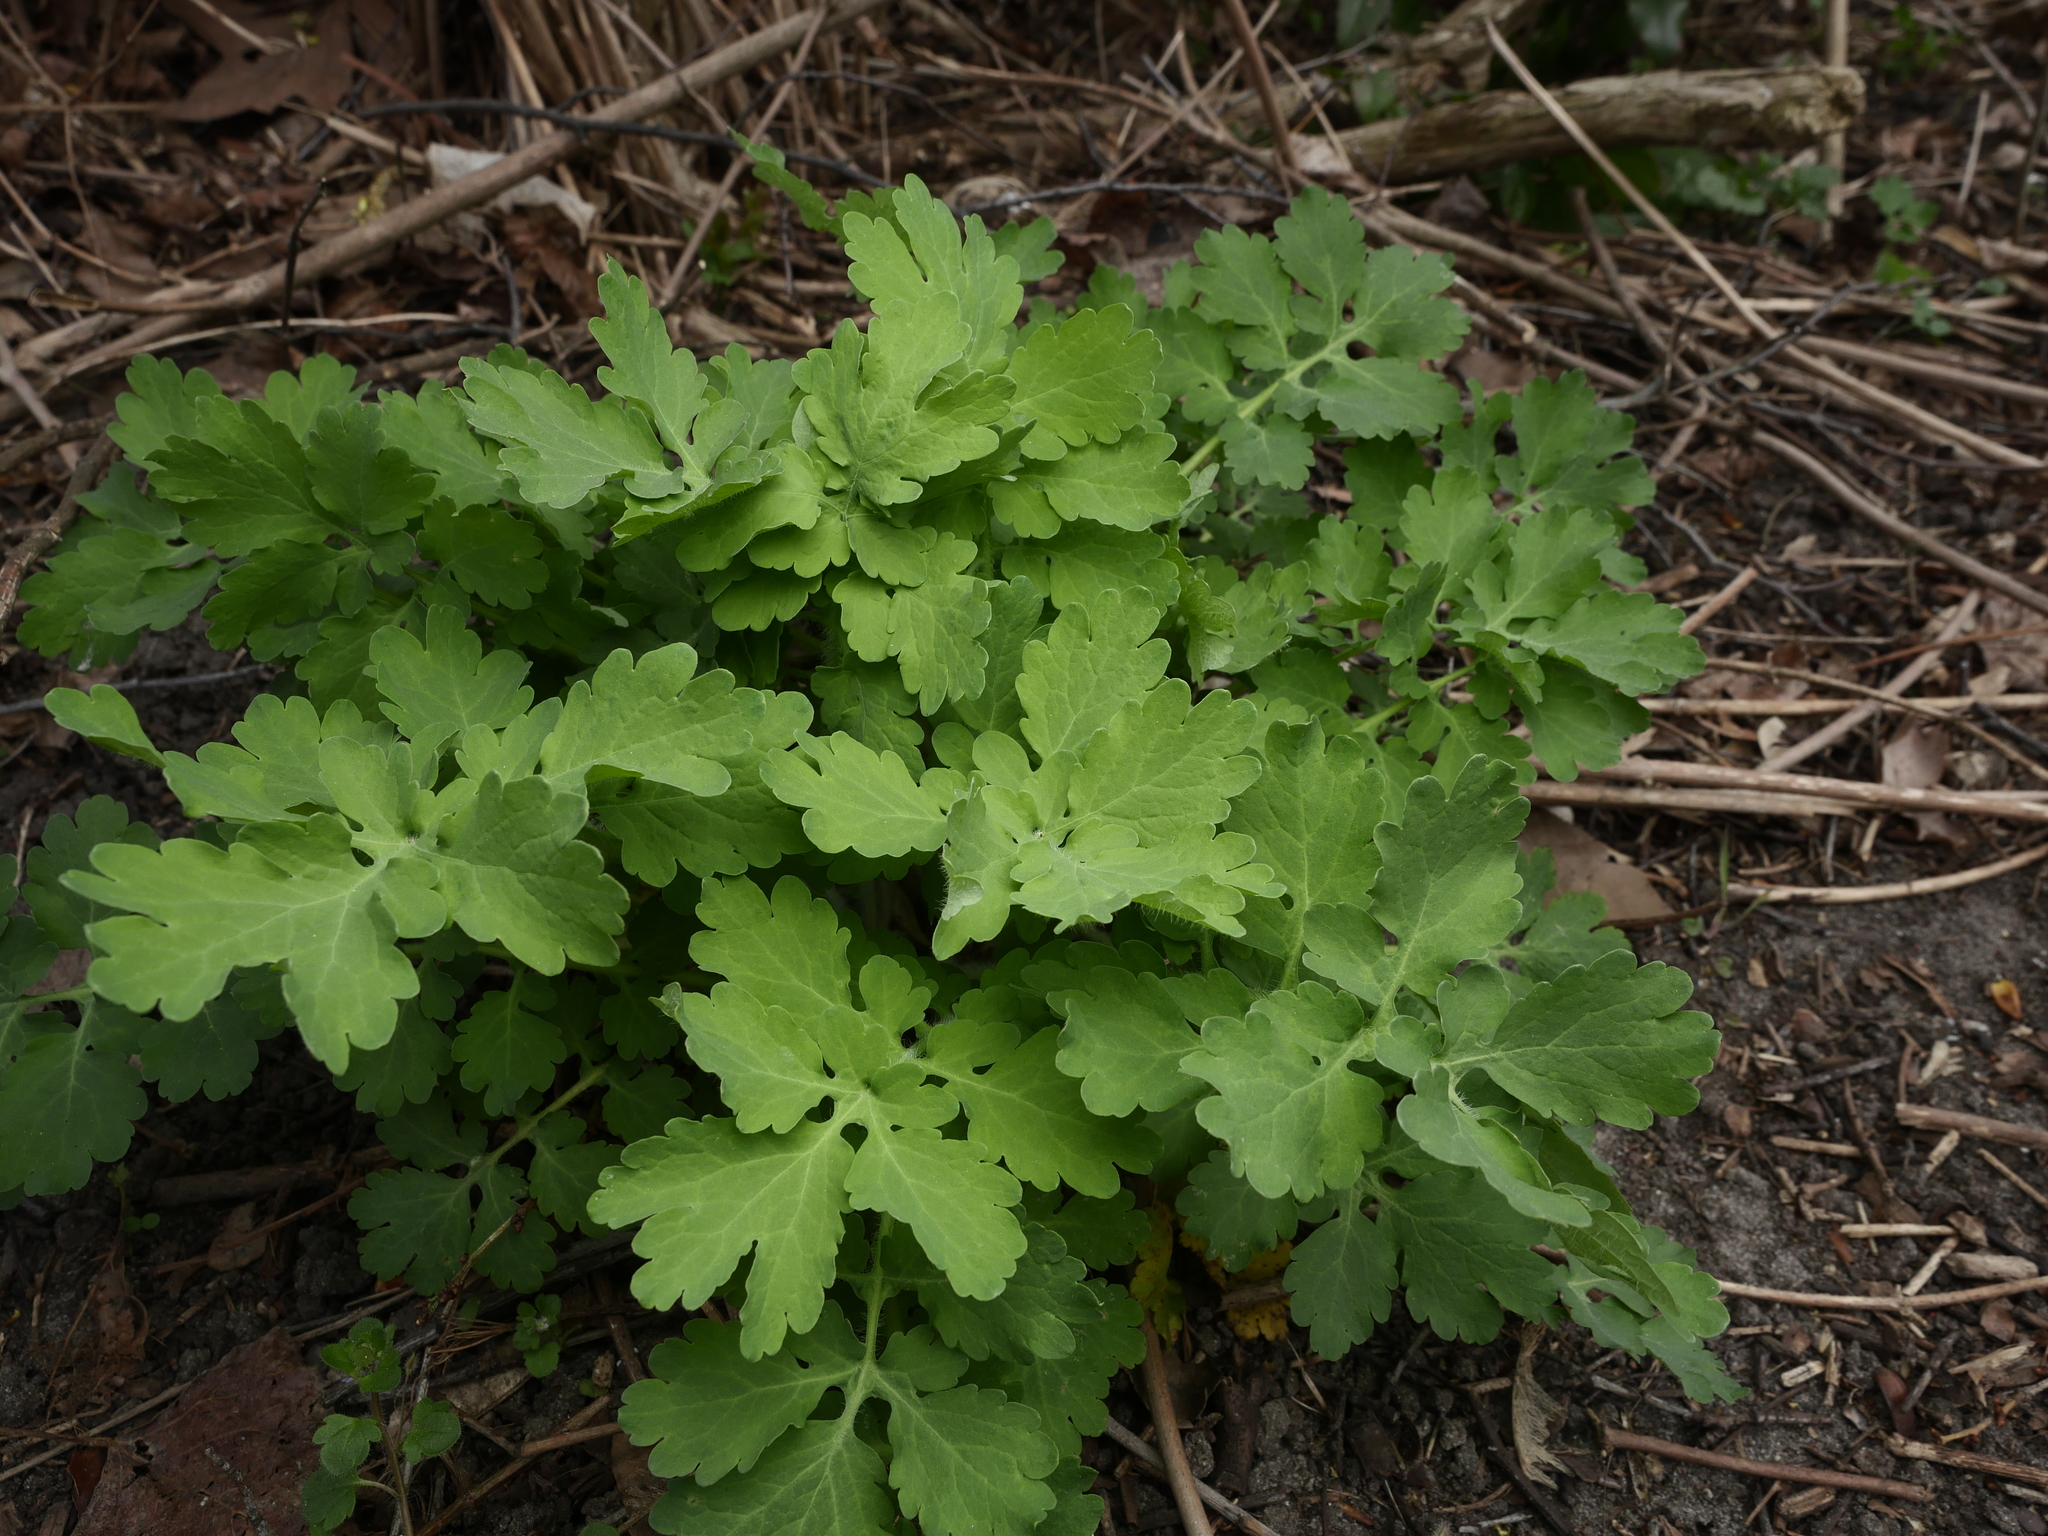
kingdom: Plantae
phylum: Tracheophyta
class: Magnoliopsida
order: Ranunculales
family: Papaveraceae
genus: Chelidonium
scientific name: Chelidonium majus
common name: Greater celandine
